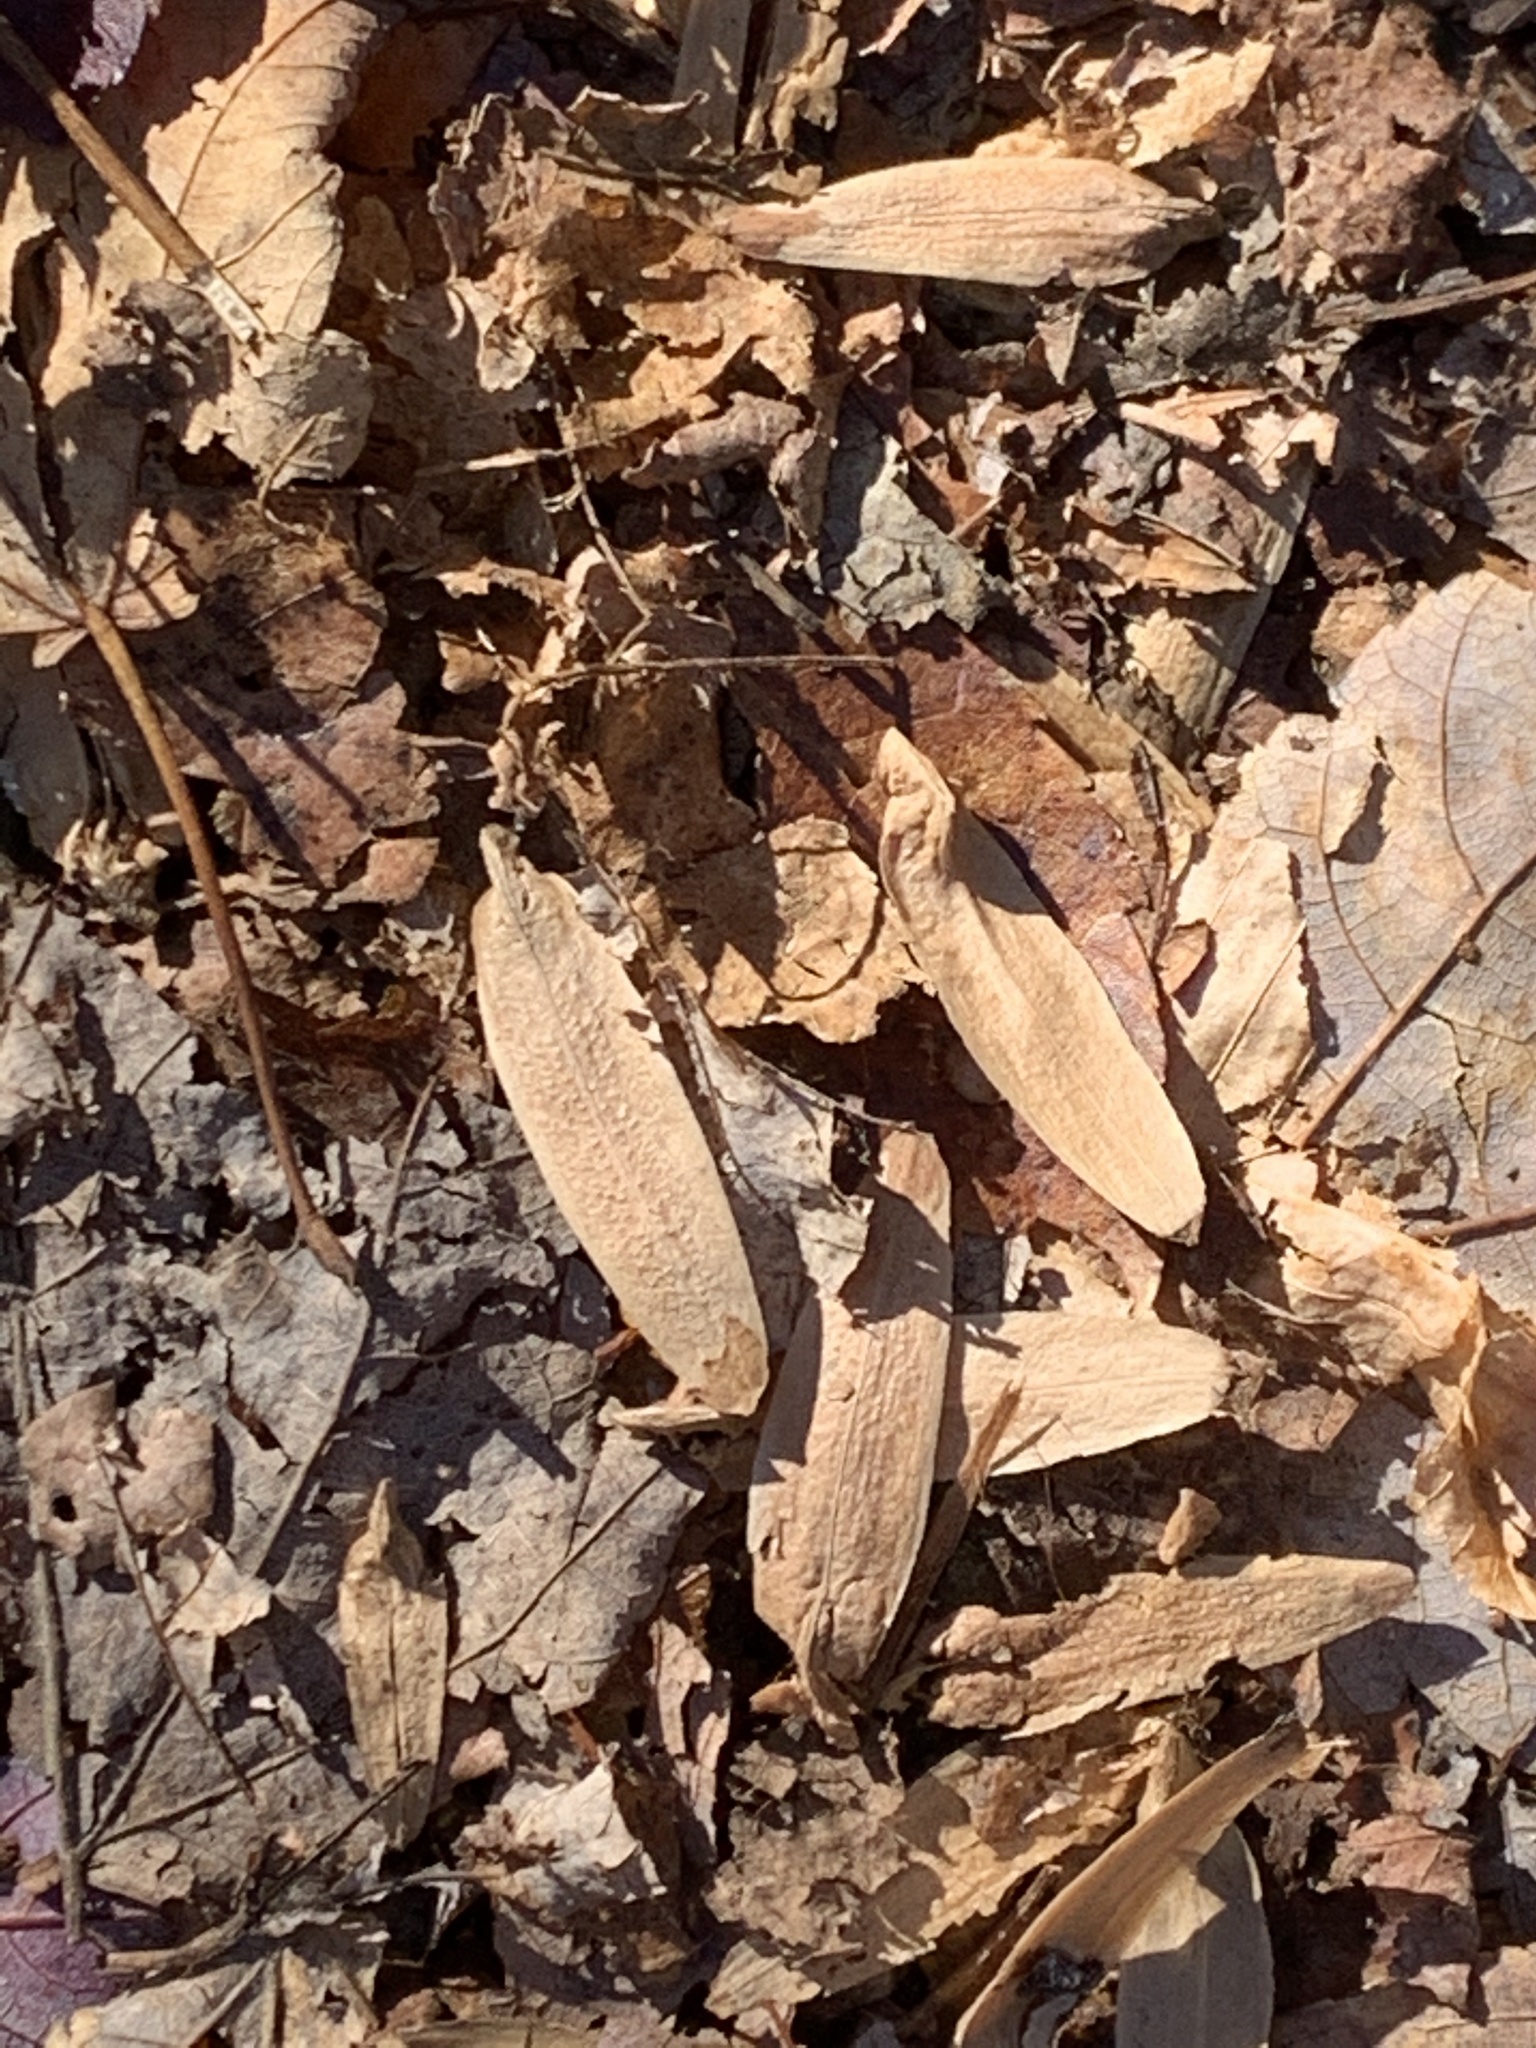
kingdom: Plantae
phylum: Tracheophyta
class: Magnoliopsida
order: Magnoliales
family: Magnoliaceae
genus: Liriodendron
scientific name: Liriodendron tulipifera
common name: Tulip tree
